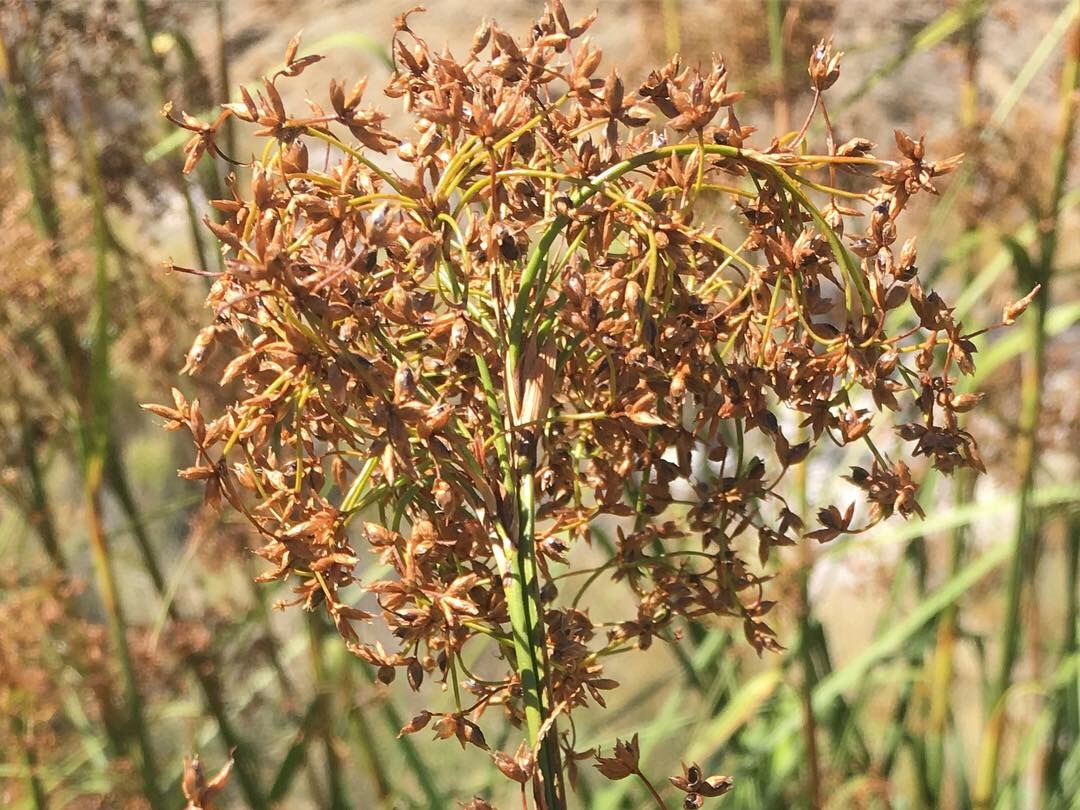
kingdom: Plantae
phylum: Tracheophyta
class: Liliopsida
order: Poales
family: Cyperaceae
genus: Cladium
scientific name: Cladium mariscus
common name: Great fen-sedge
